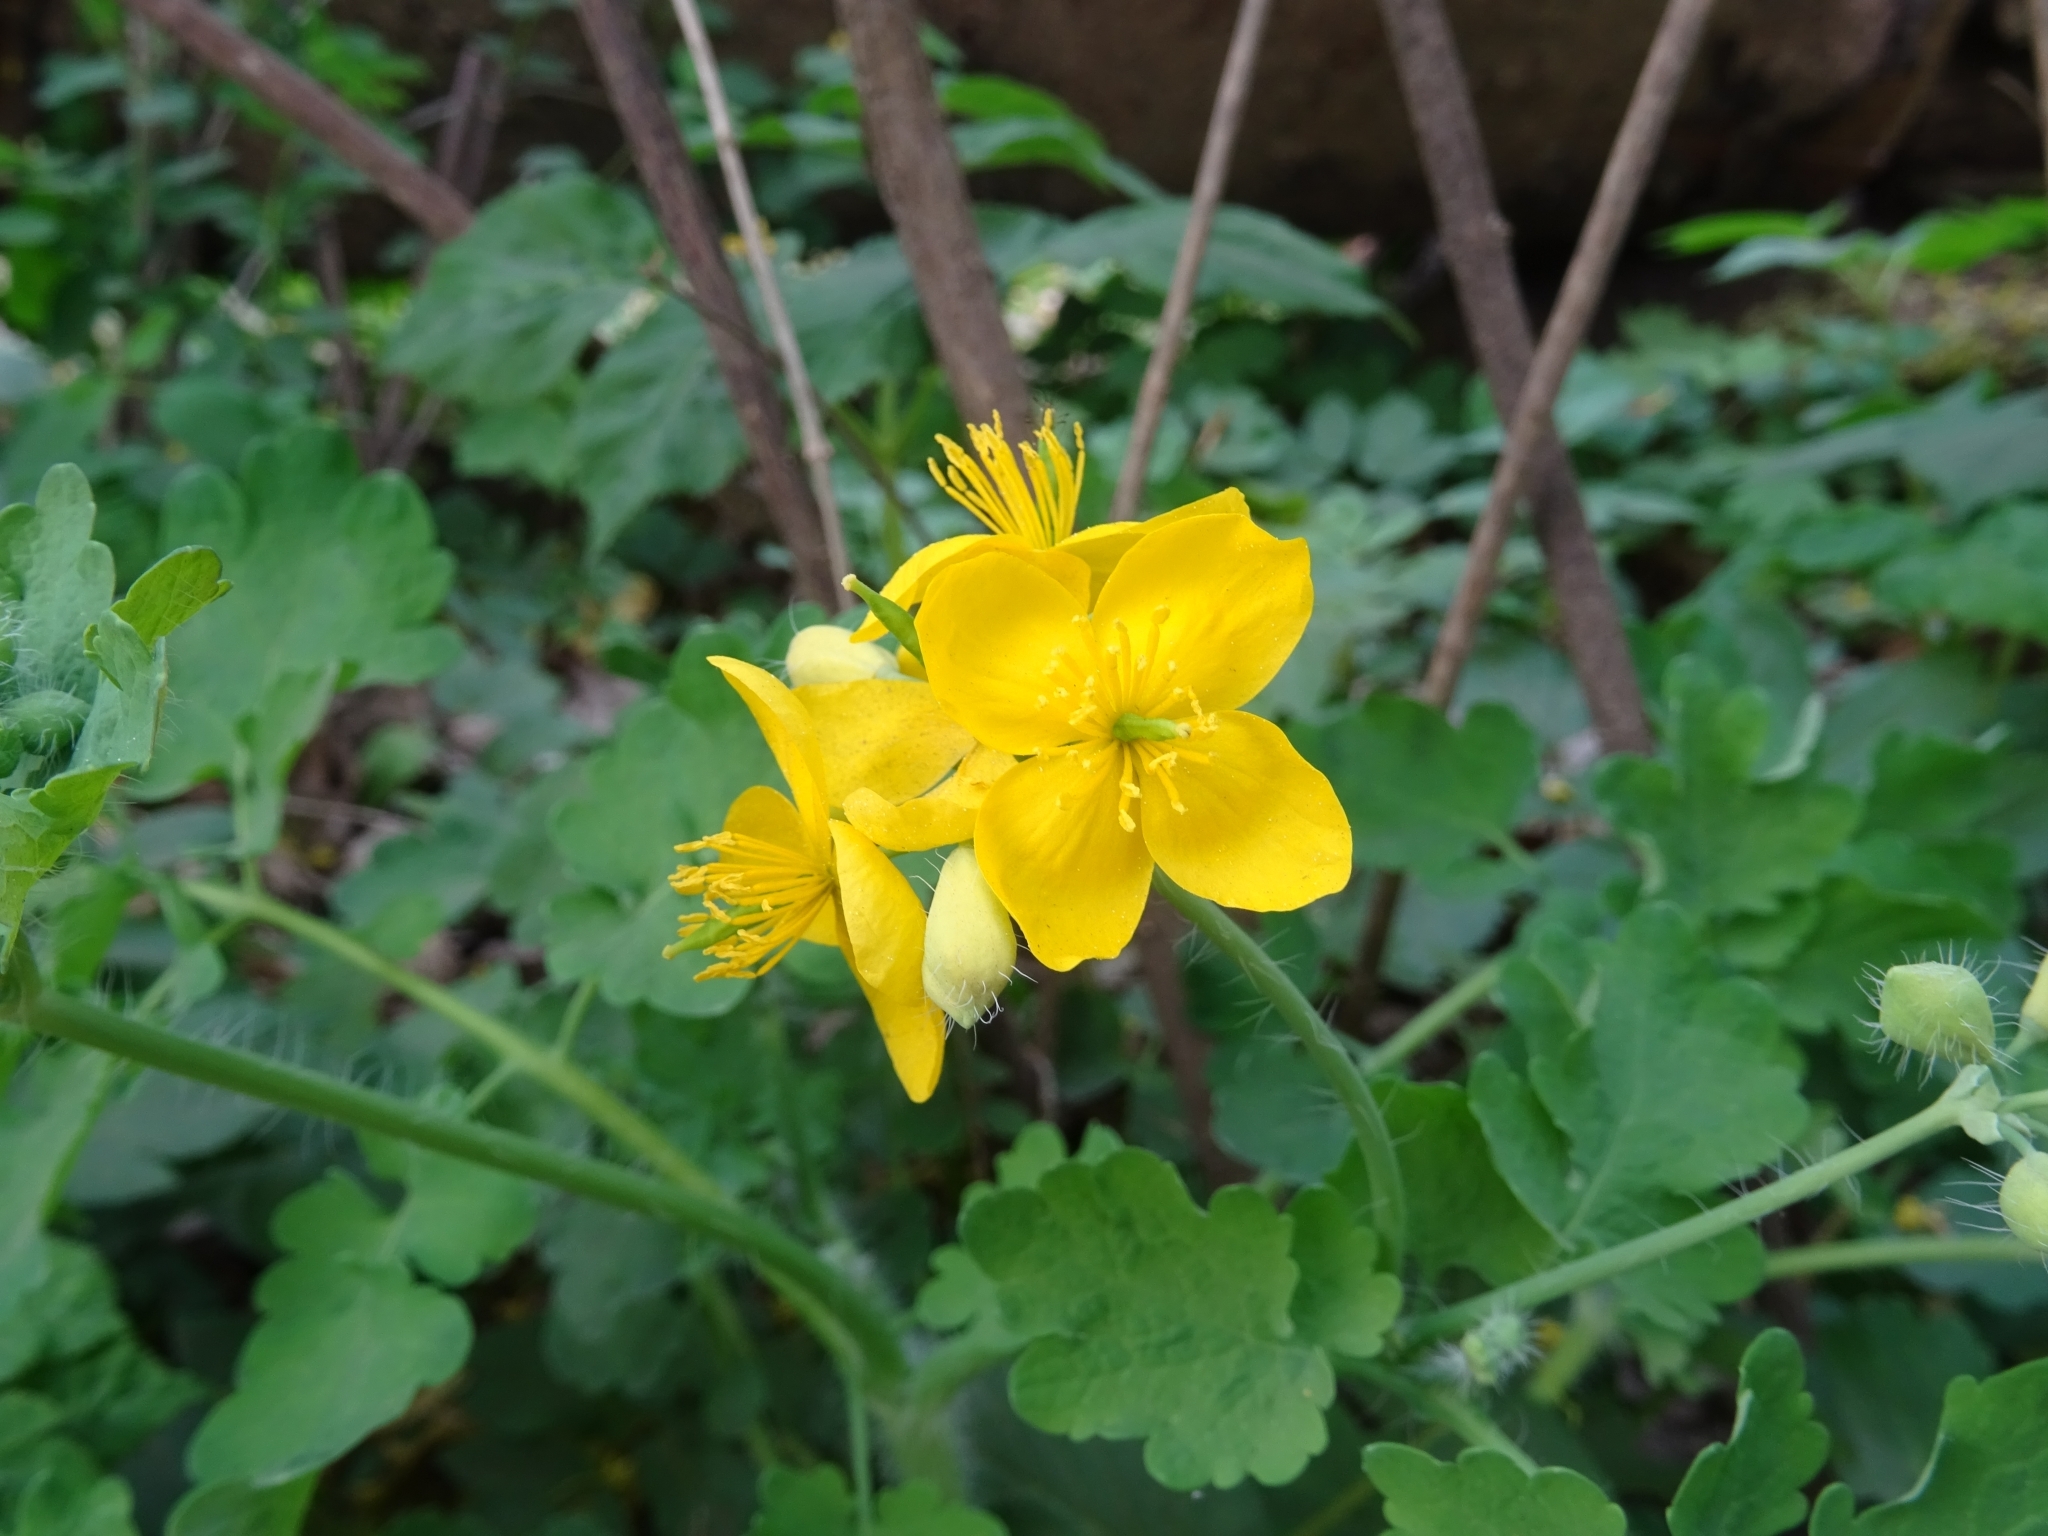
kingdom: Plantae
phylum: Tracheophyta
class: Magnoliopsida
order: Ranunculales
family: Papaveraceae
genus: Chelidonium
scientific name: Chelidonium majus
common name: Greater celandine
